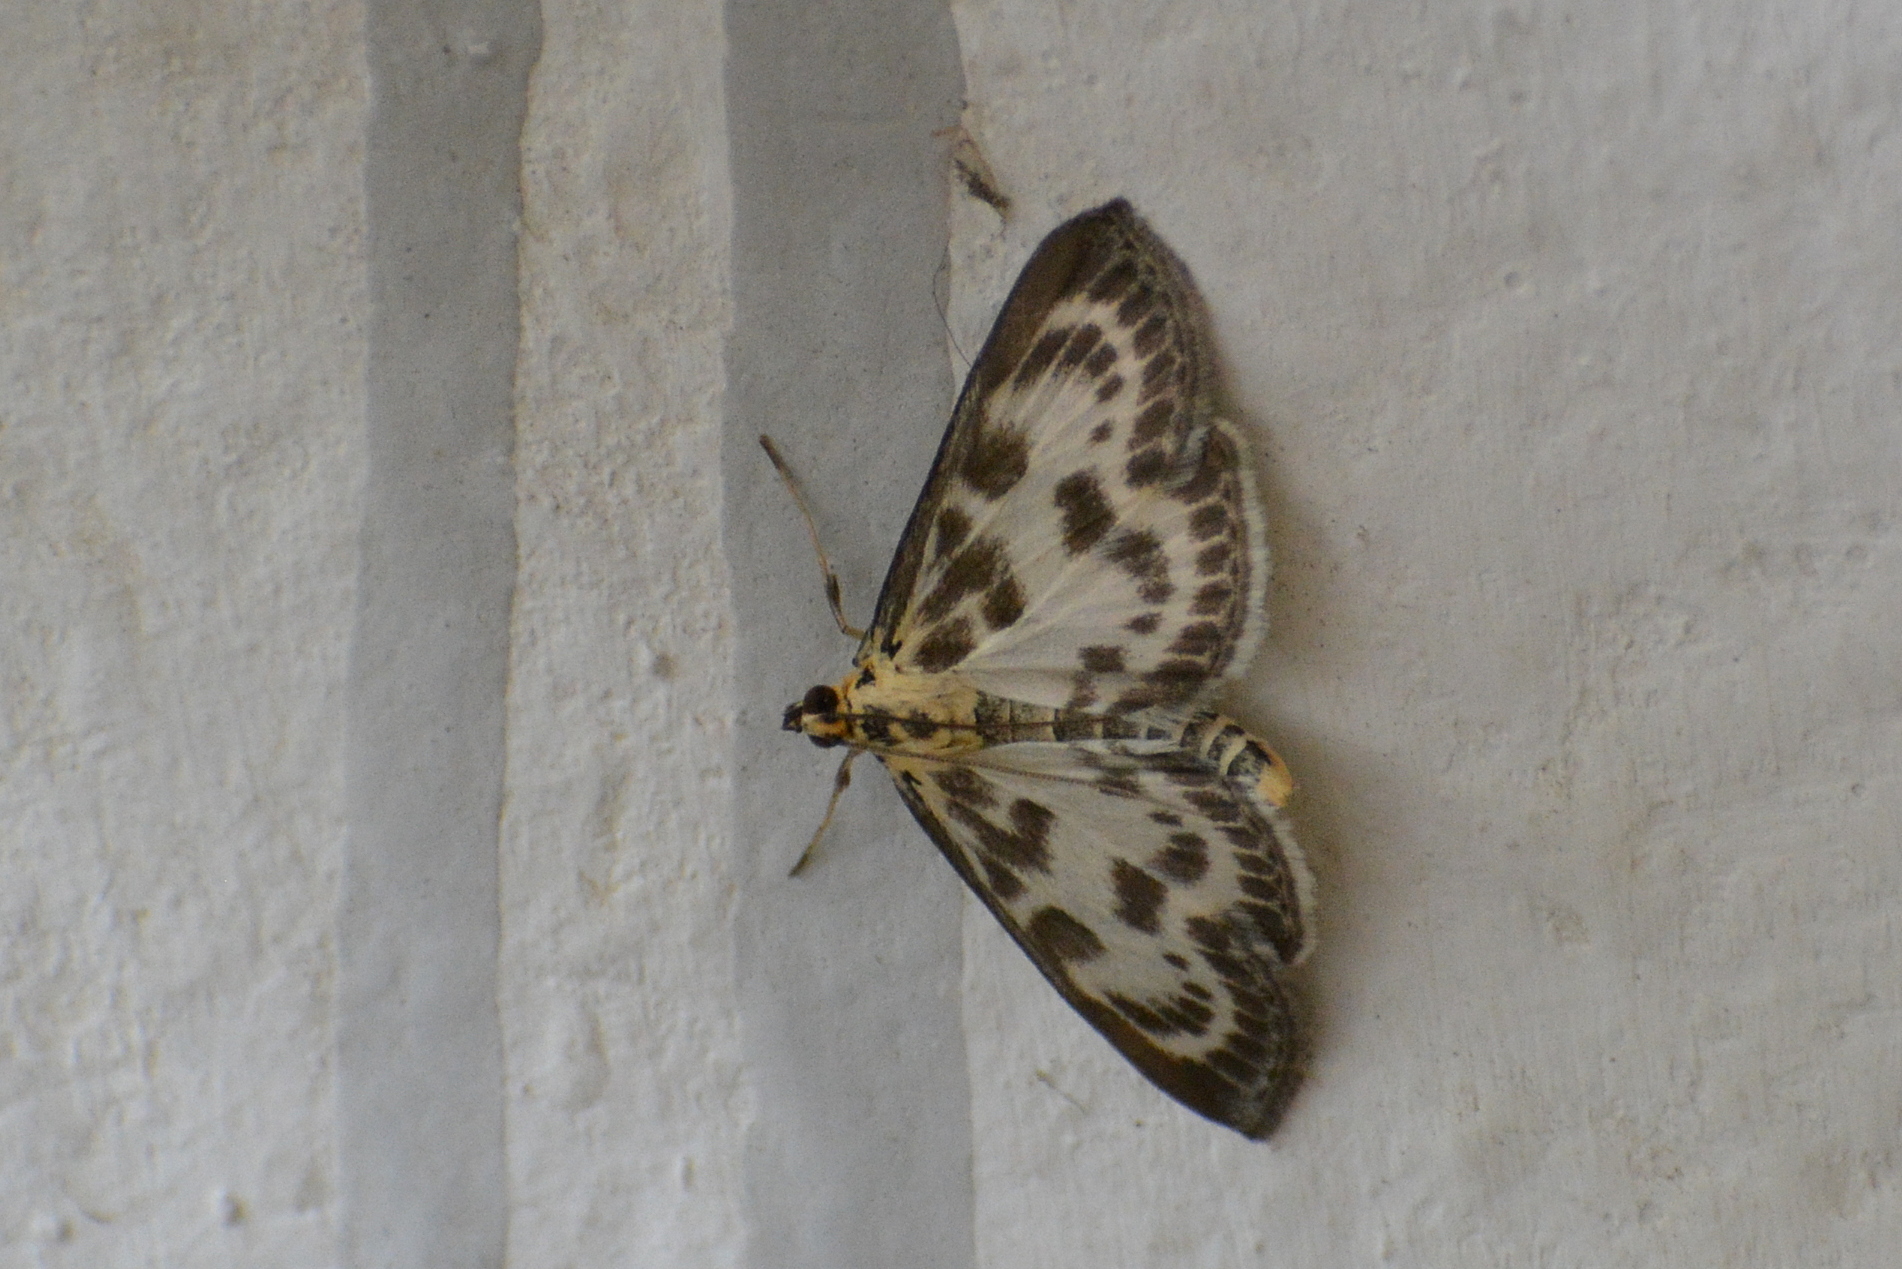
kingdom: Animalia
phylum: Arthropoda
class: Insecta
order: Lepidoptera
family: Crambidae
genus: Anania
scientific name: Anania hortulata
